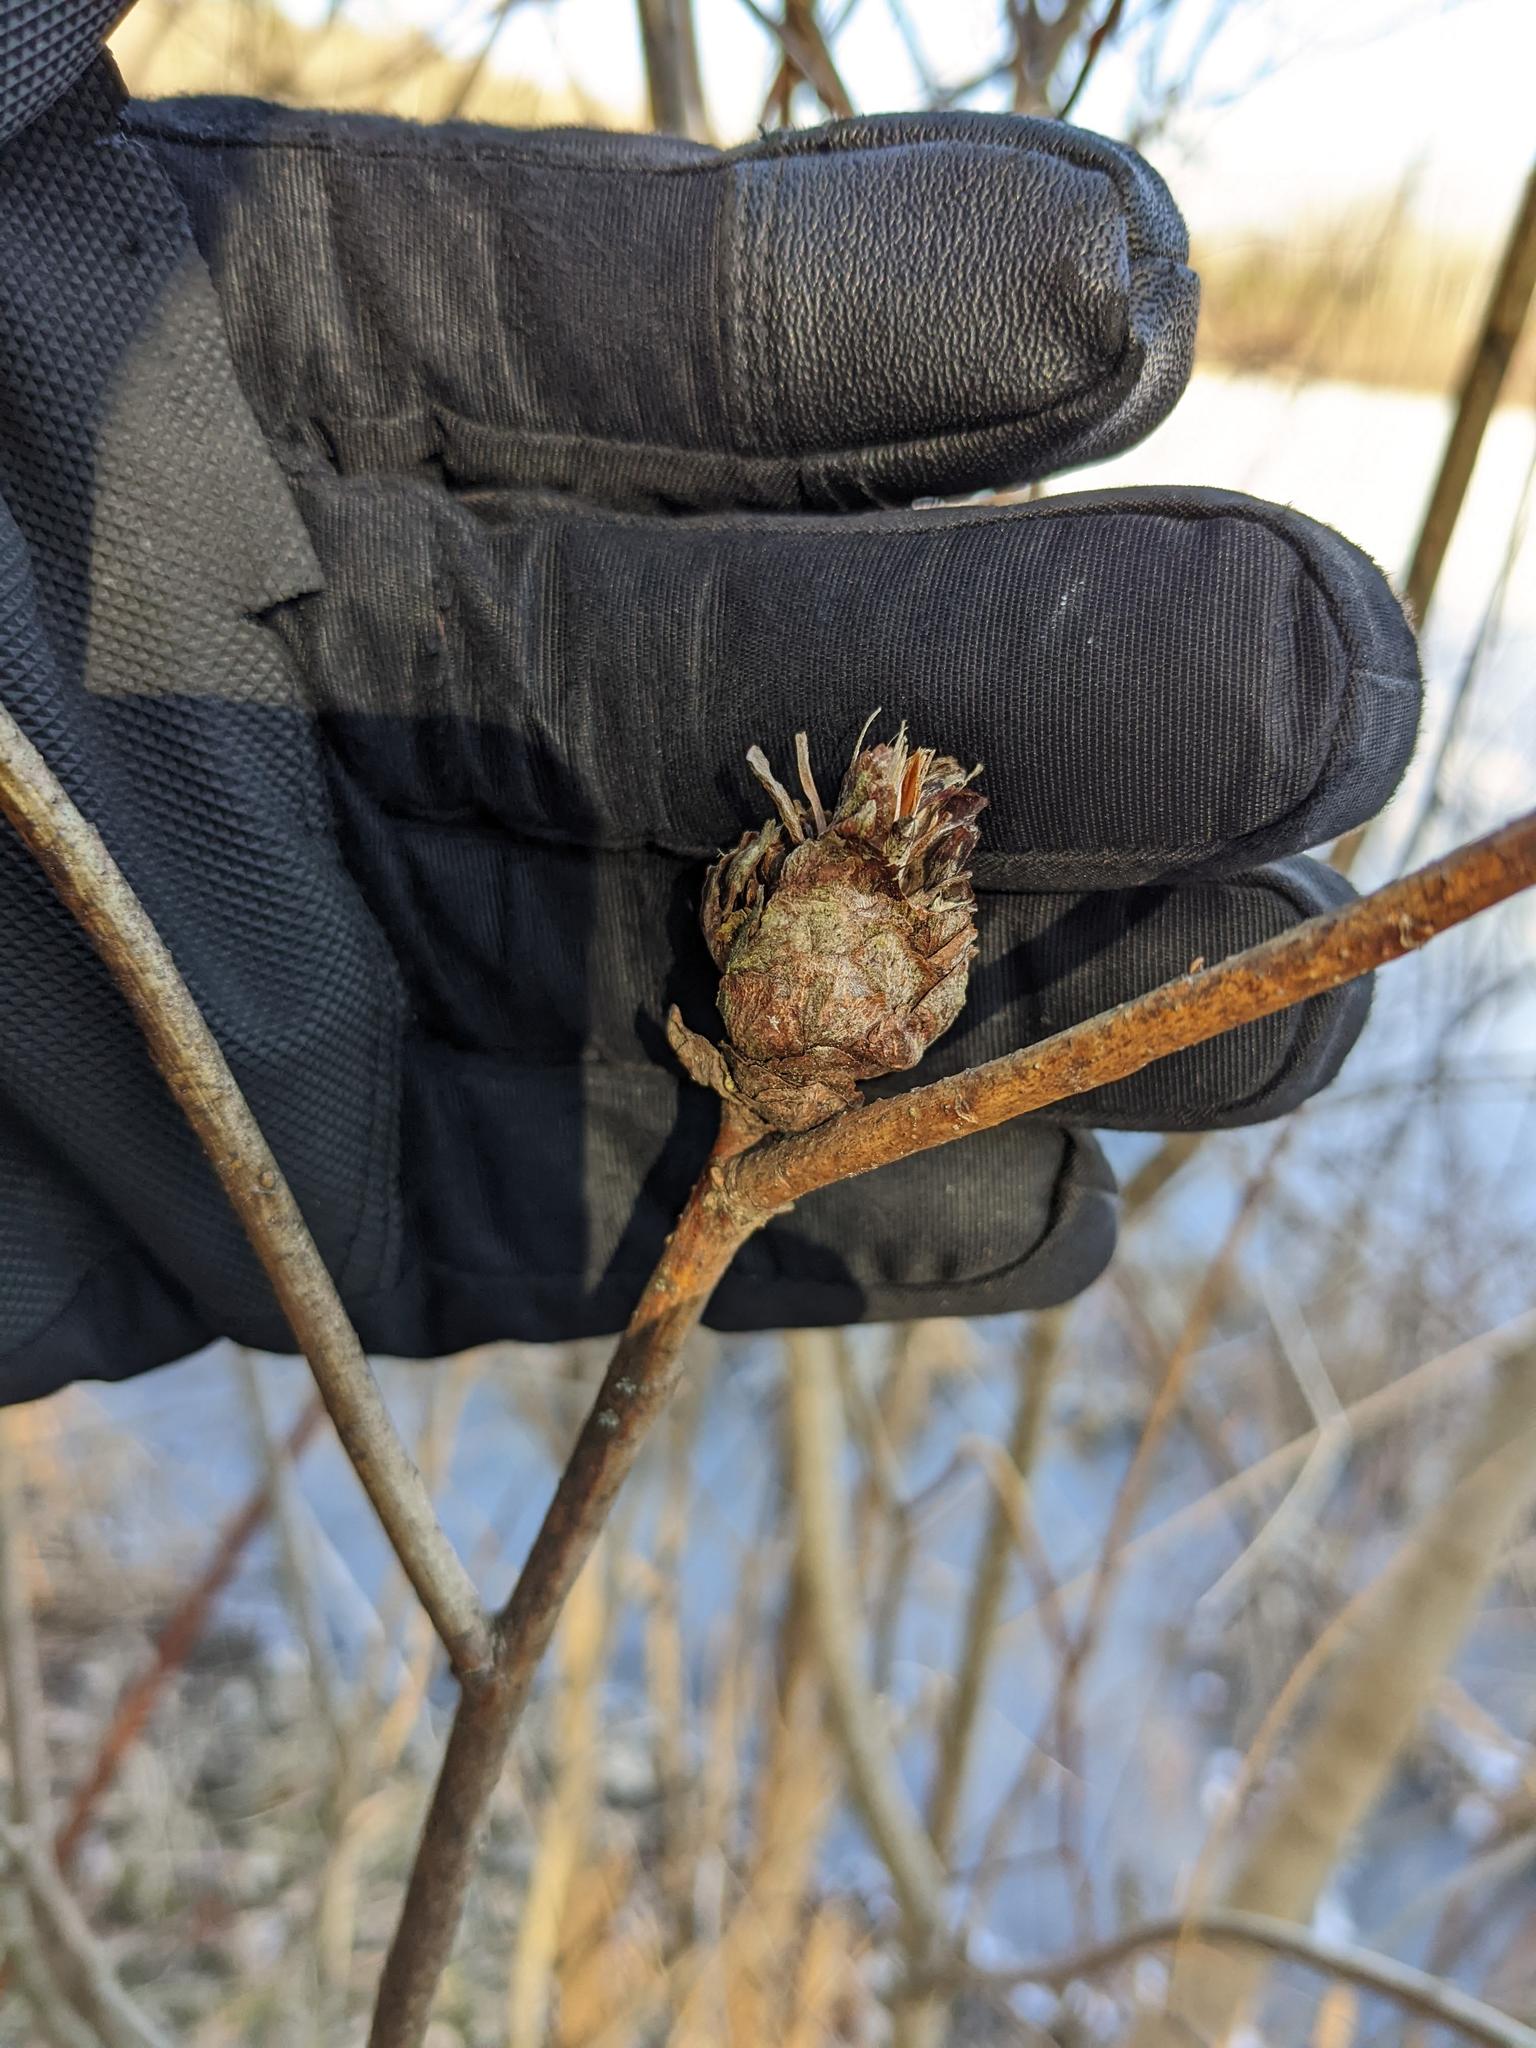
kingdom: Animalia
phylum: Arthropoda
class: Insecta
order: Diptera
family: Cecidomyiidae
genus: Rabdophaga
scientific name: Rabdophaga strobiloides
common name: Willow pinecone gall midge
